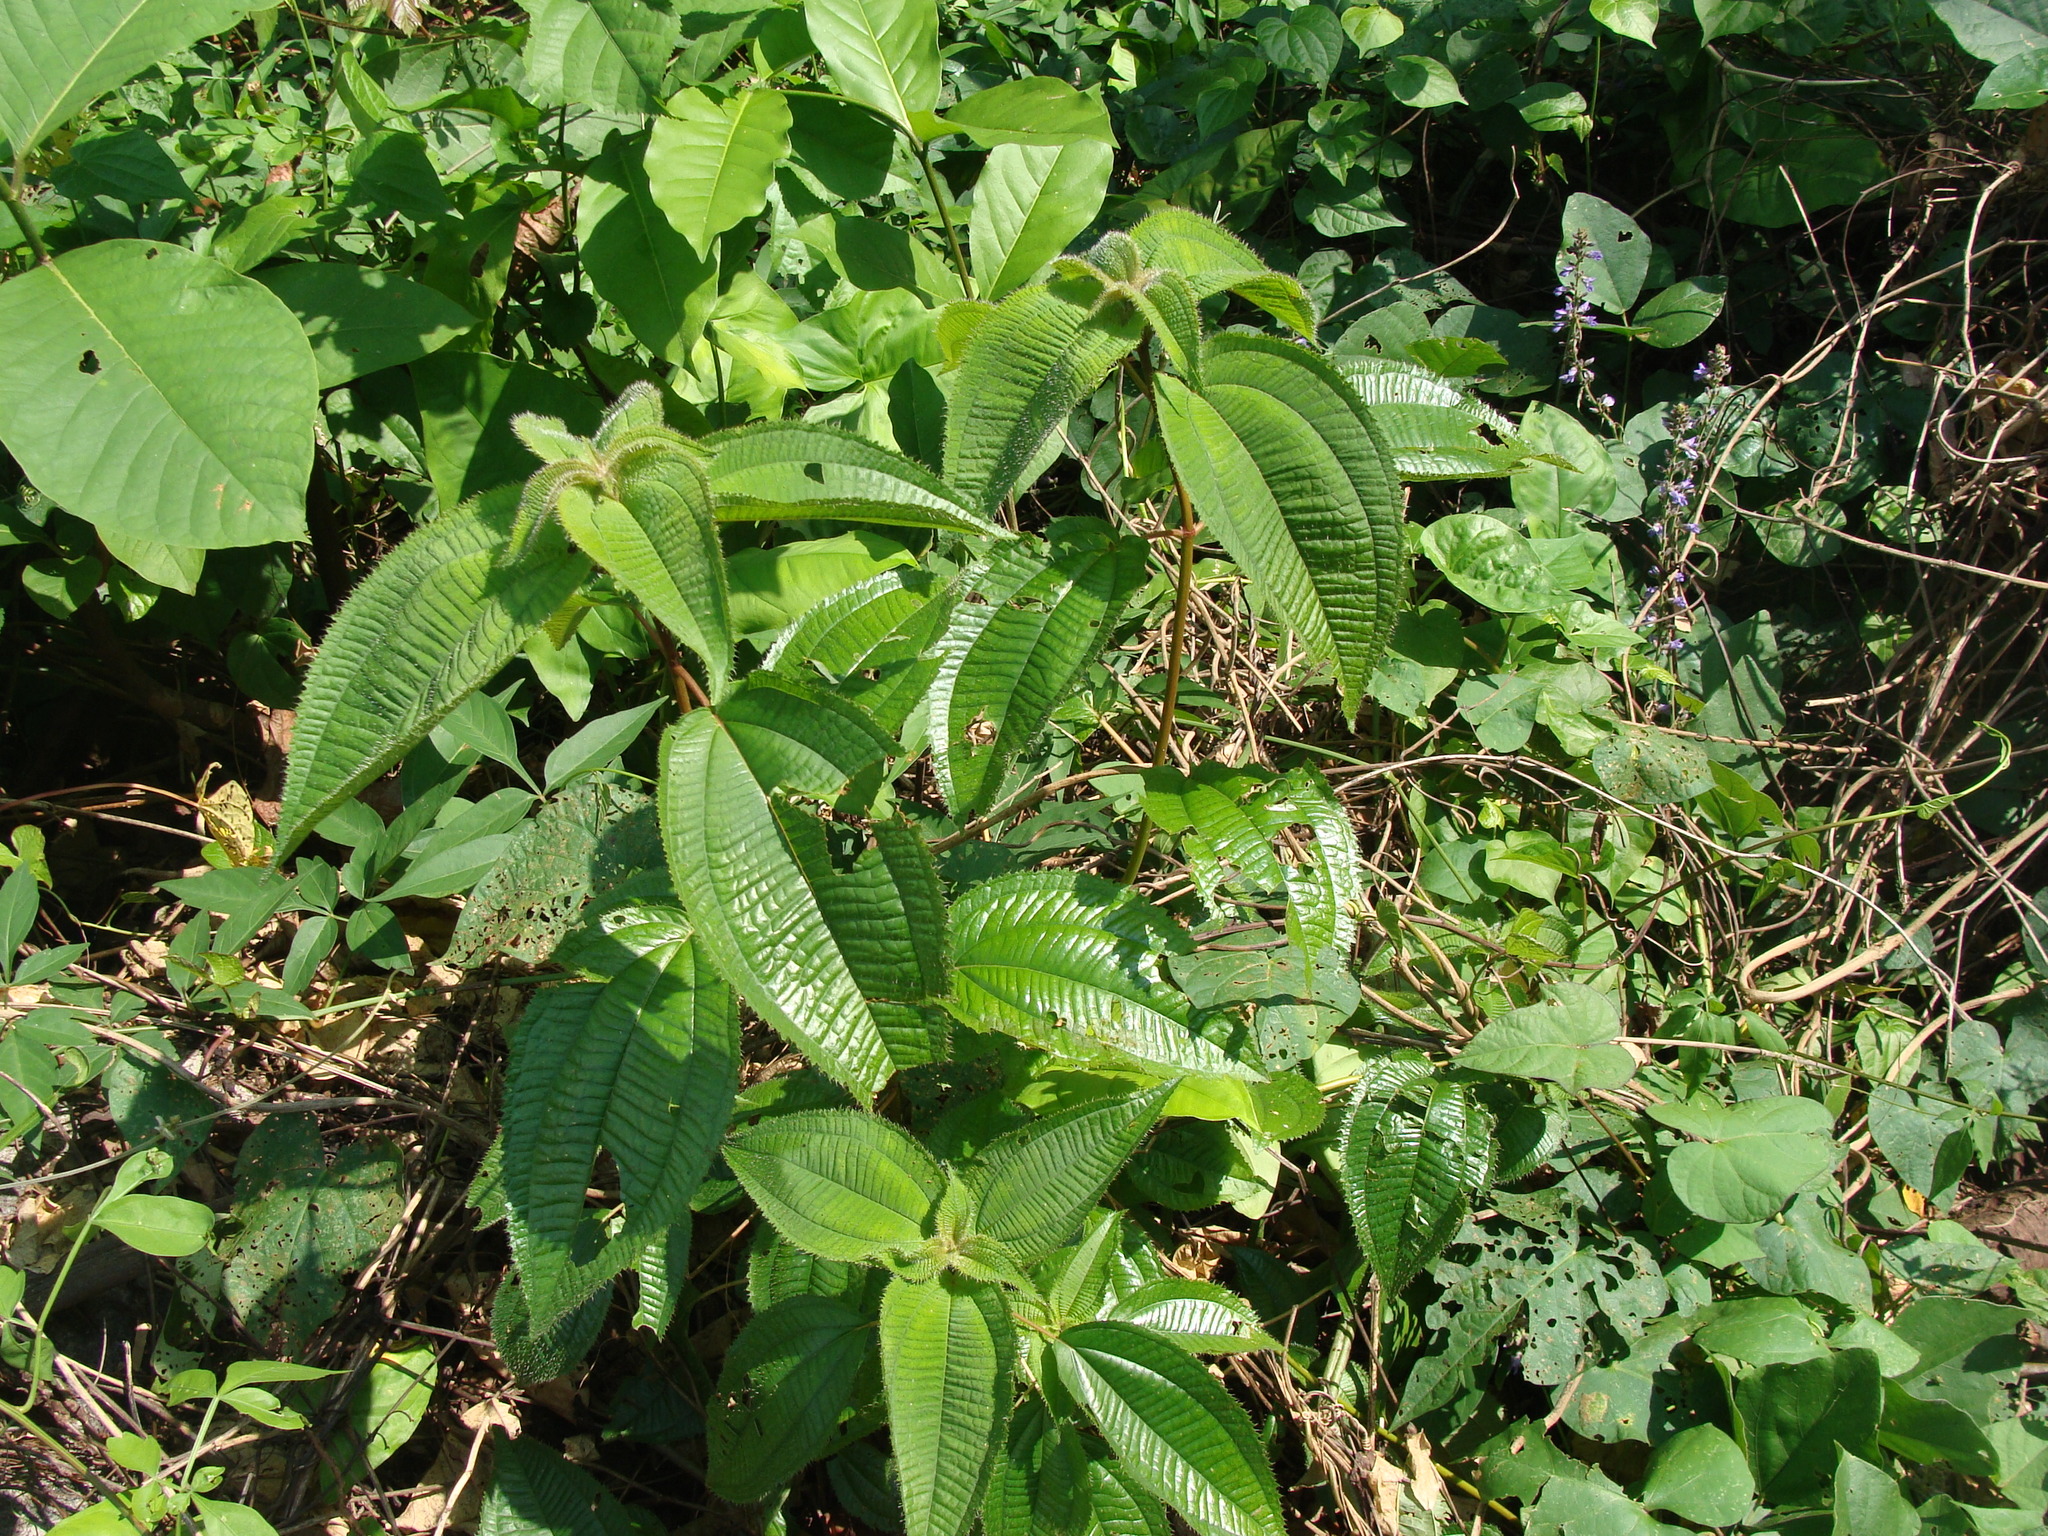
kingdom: Plantae
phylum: Tracheophyta
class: Magnoliopsida
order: Myrtales
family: Melastomataceae
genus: Miconia
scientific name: Miconia xalapensis
